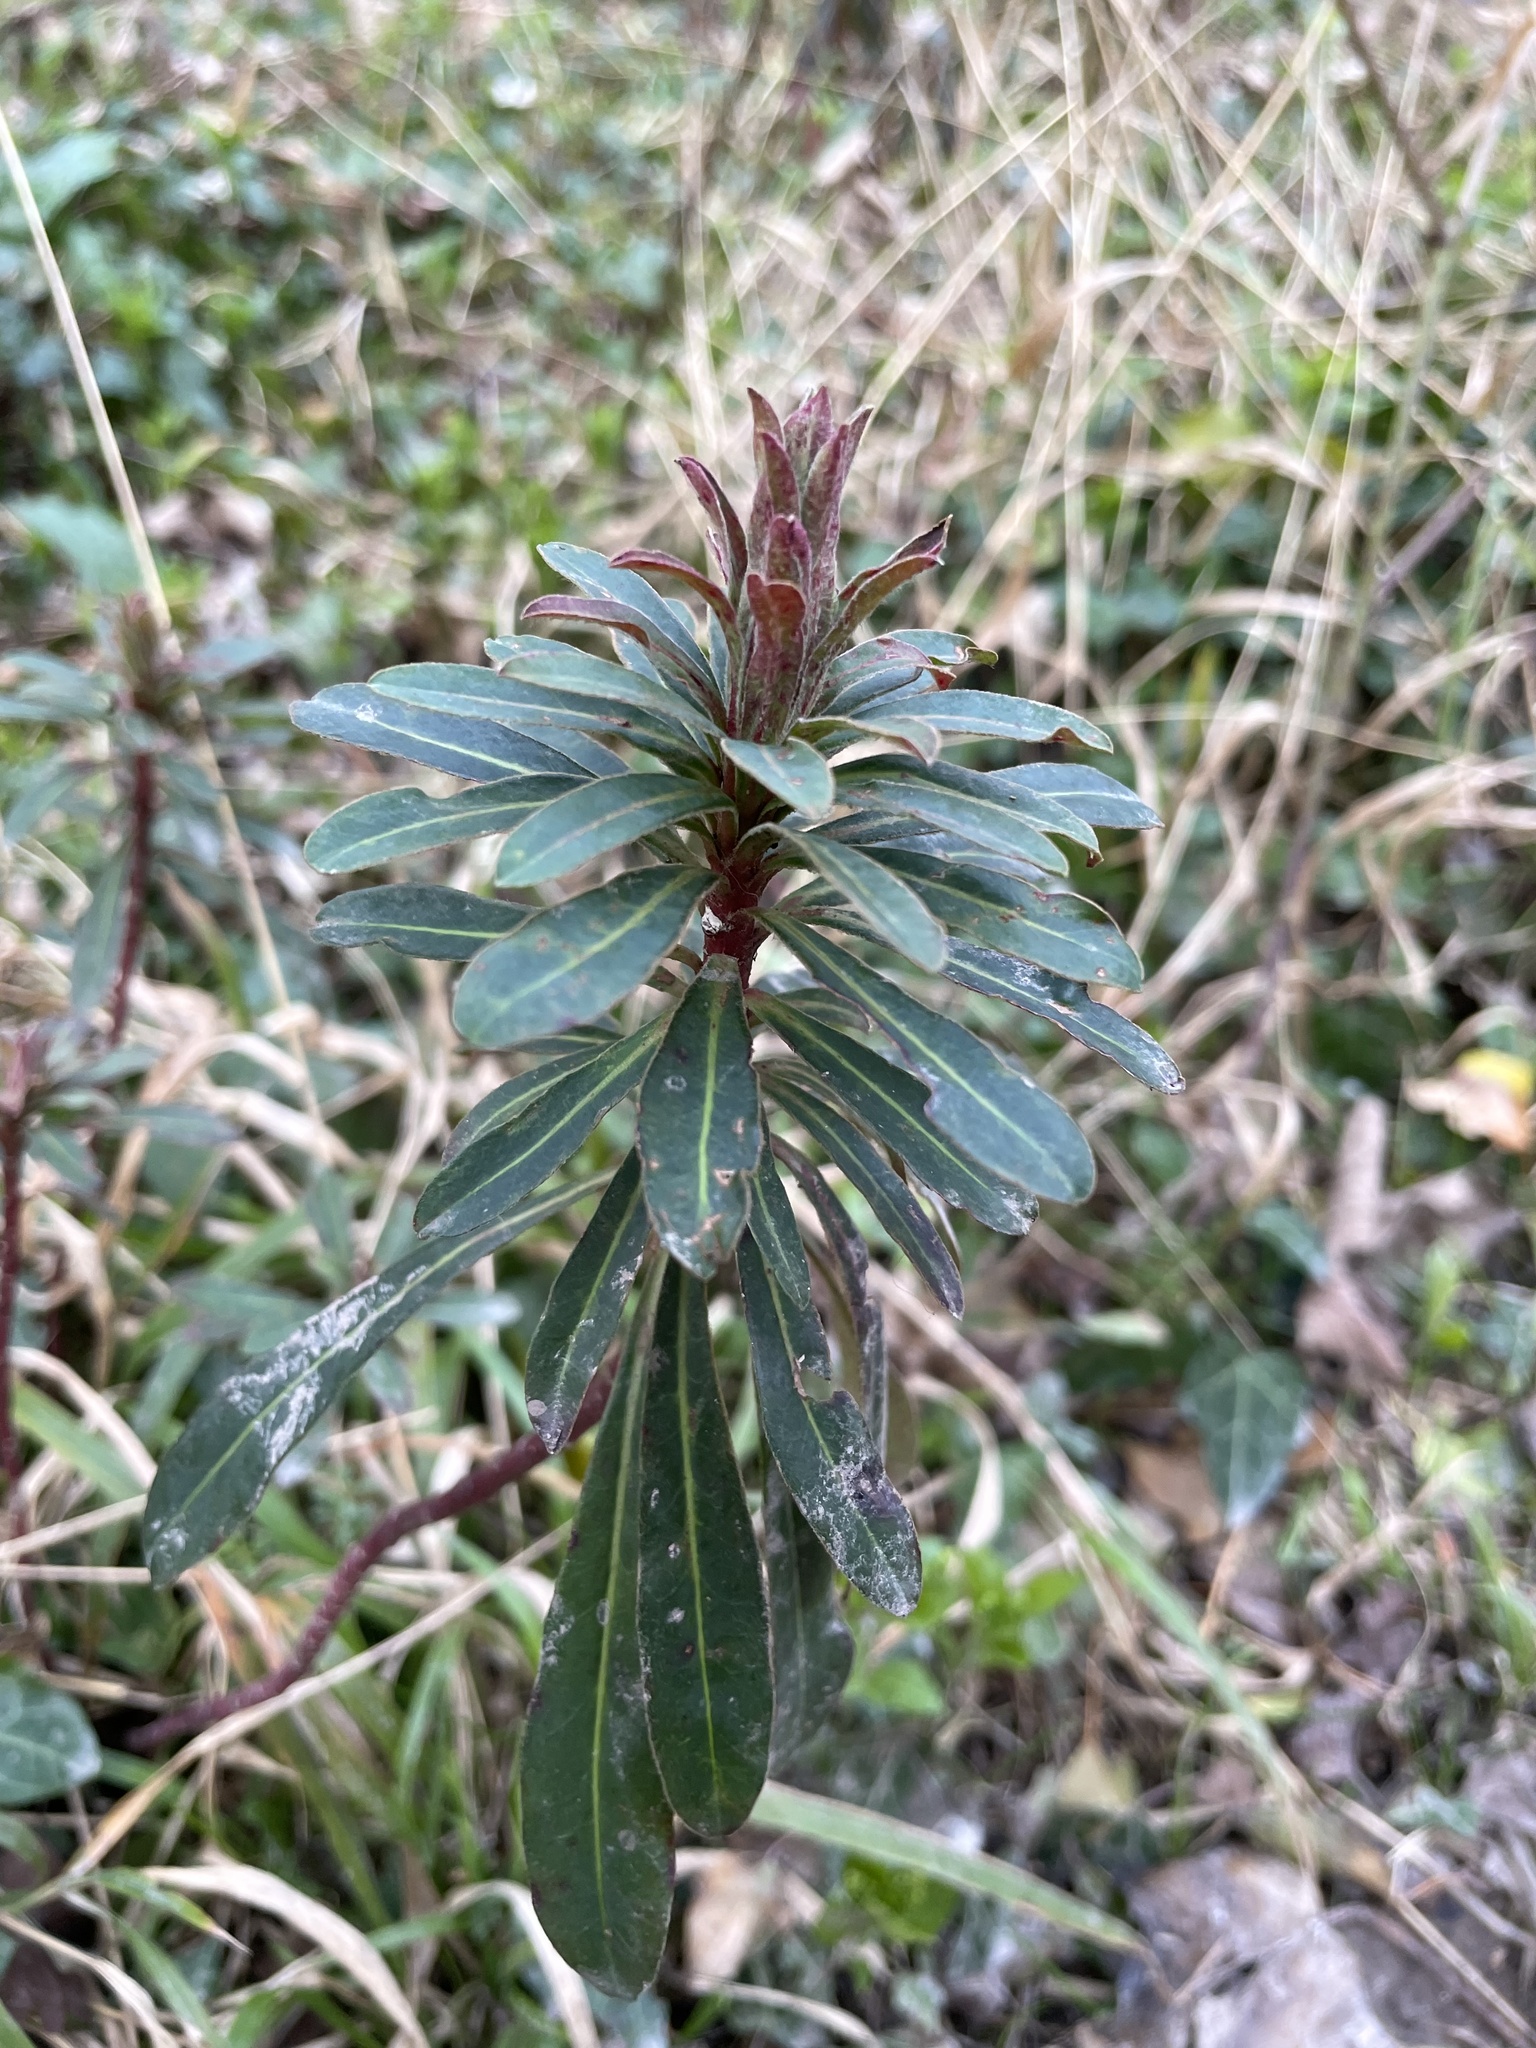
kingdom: Plantae
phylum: Tracheophyta
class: Magnoliopsida
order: Malpighiales
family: Euphorbiaceae
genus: Euphorbia
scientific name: Euphorbia amygdaloides
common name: Wood spurge
